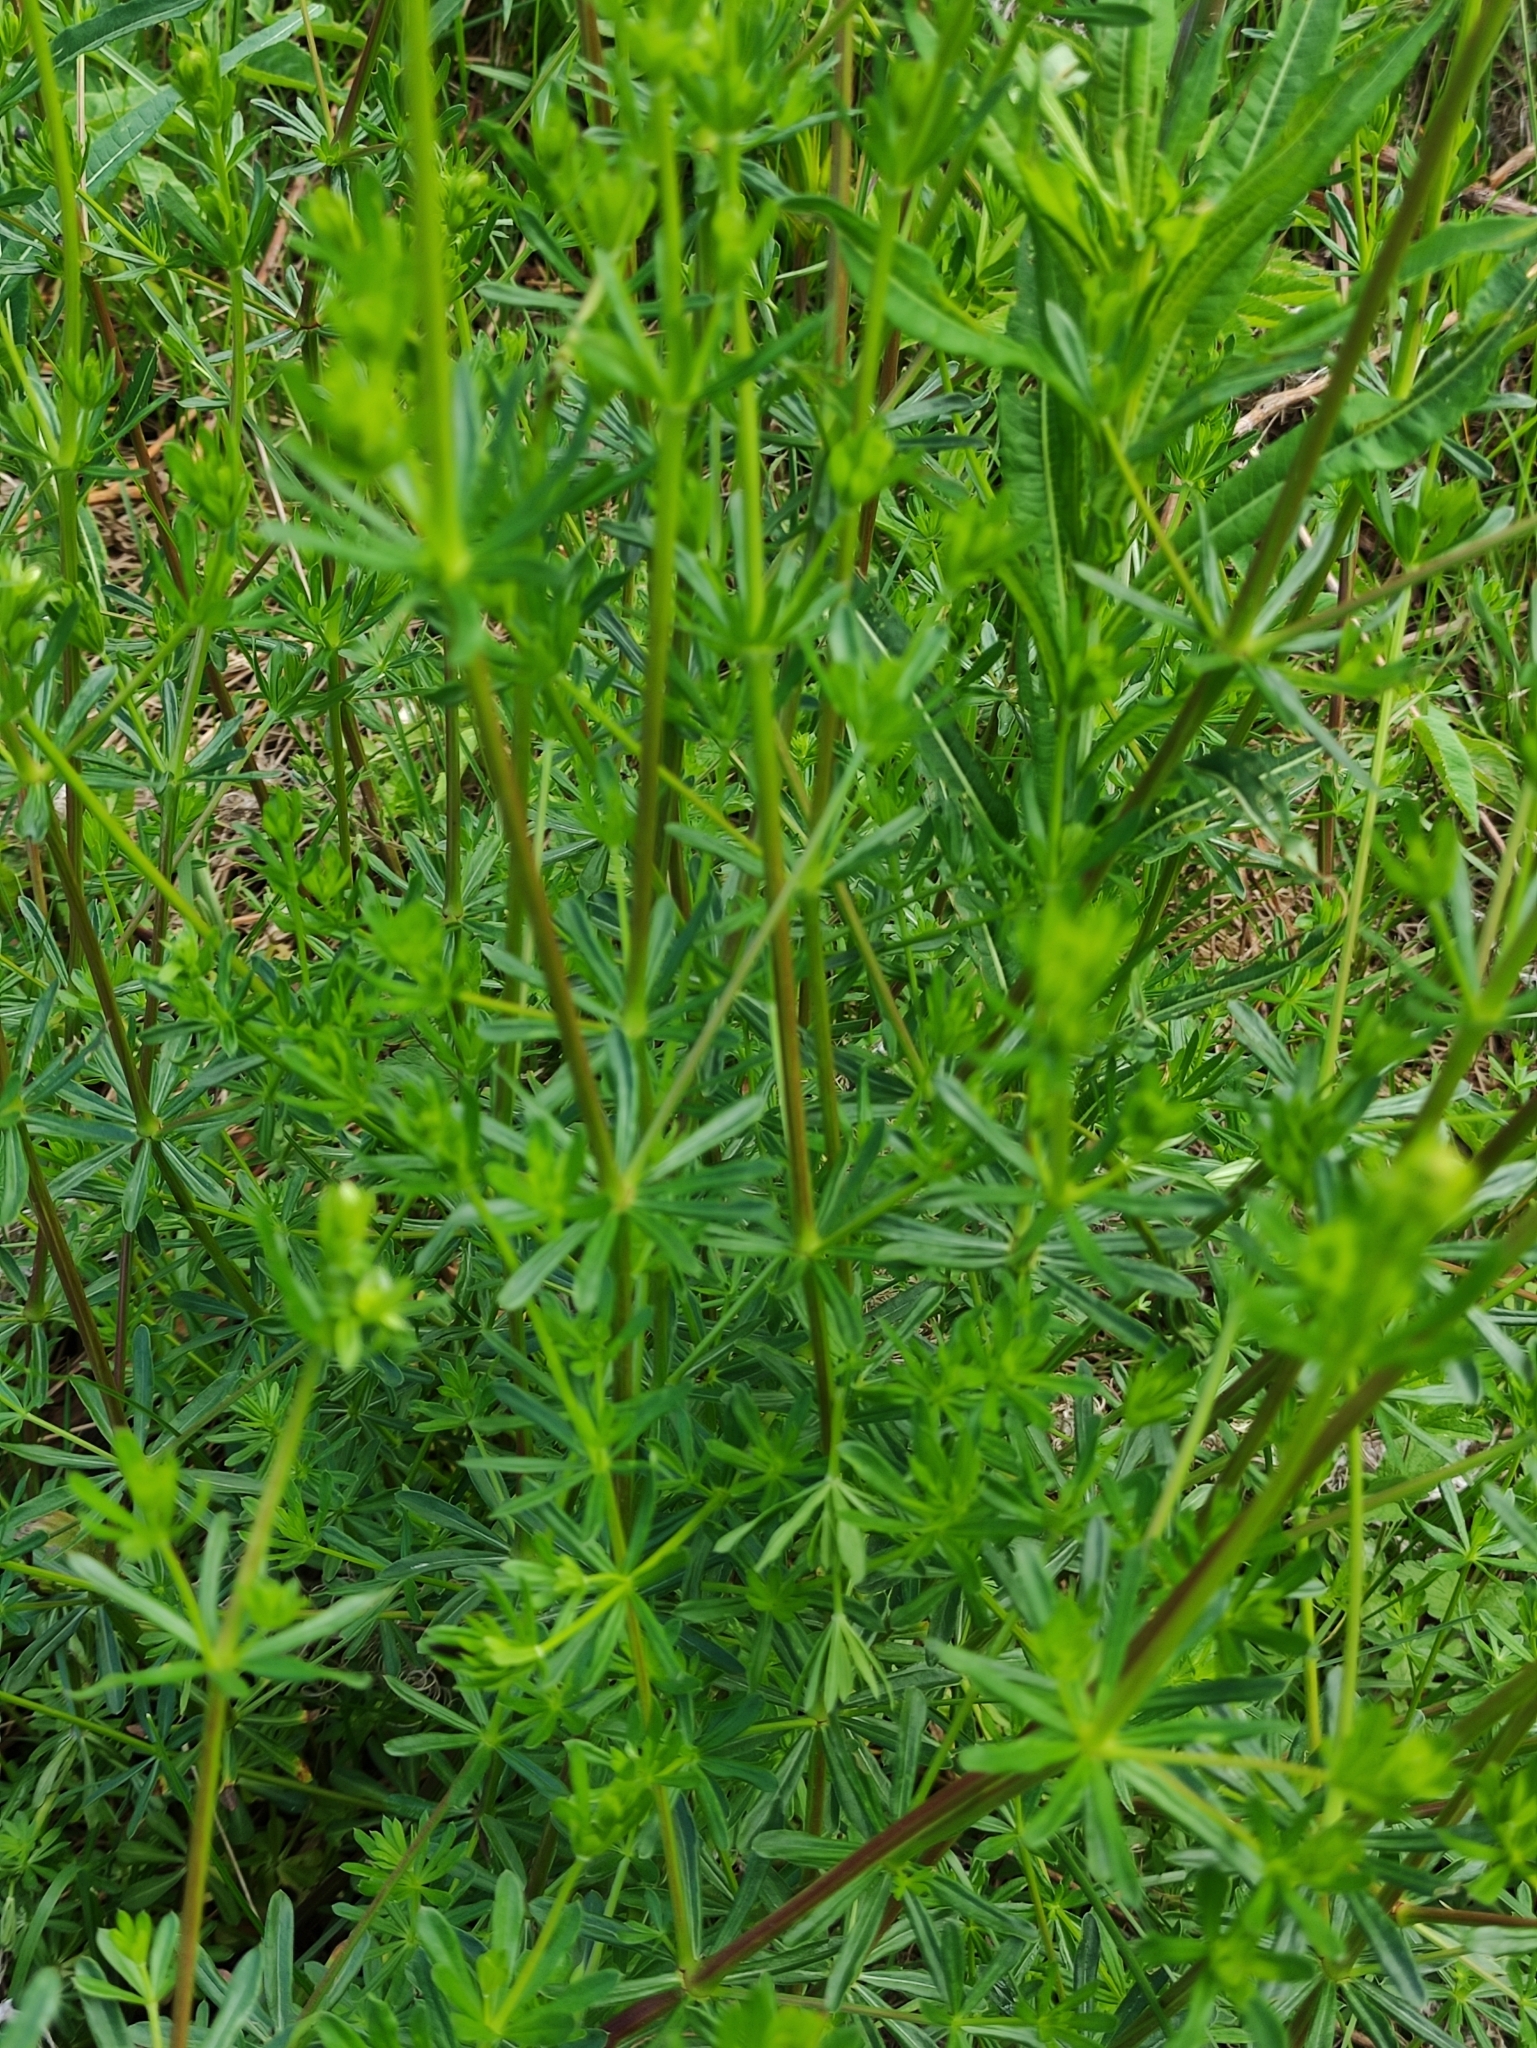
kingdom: Plantae
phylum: Tracheophyta
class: Magnoliopsida
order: Gentianales
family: Rubiaceae
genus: Galium
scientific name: Galium mollugo
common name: Hedge bedstraw
